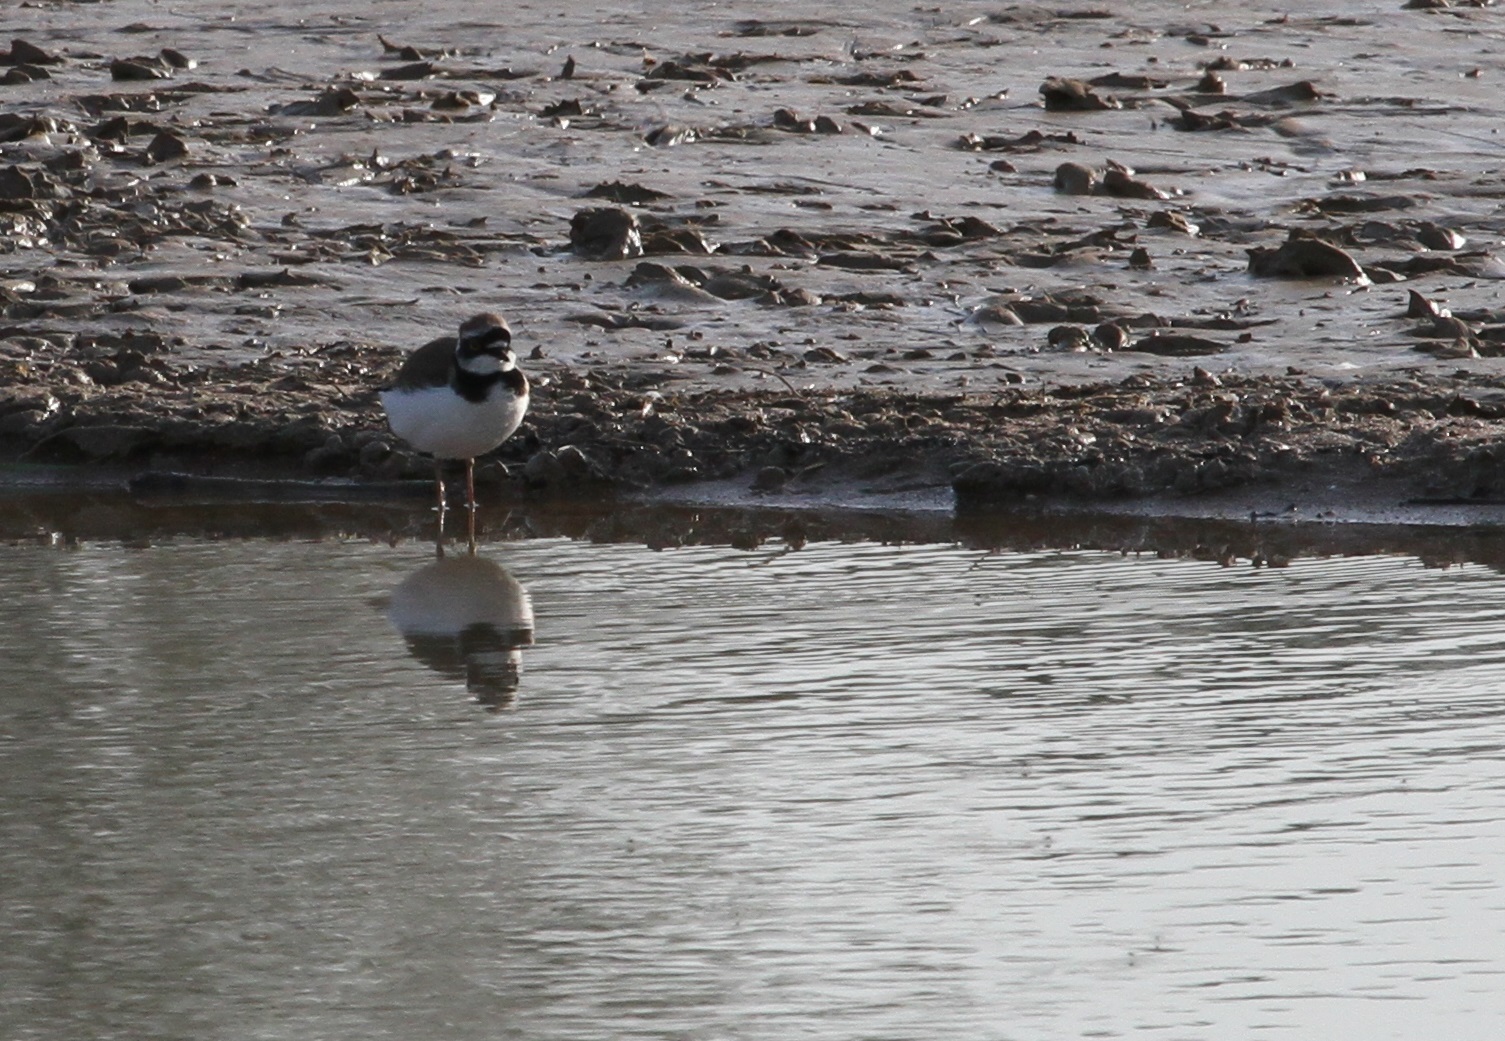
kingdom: Animalia
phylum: Chordata
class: Aves
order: Charadriiformes
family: Charadriidae
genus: Charadrius
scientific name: Charadrius dubius
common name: Little ringed plover
